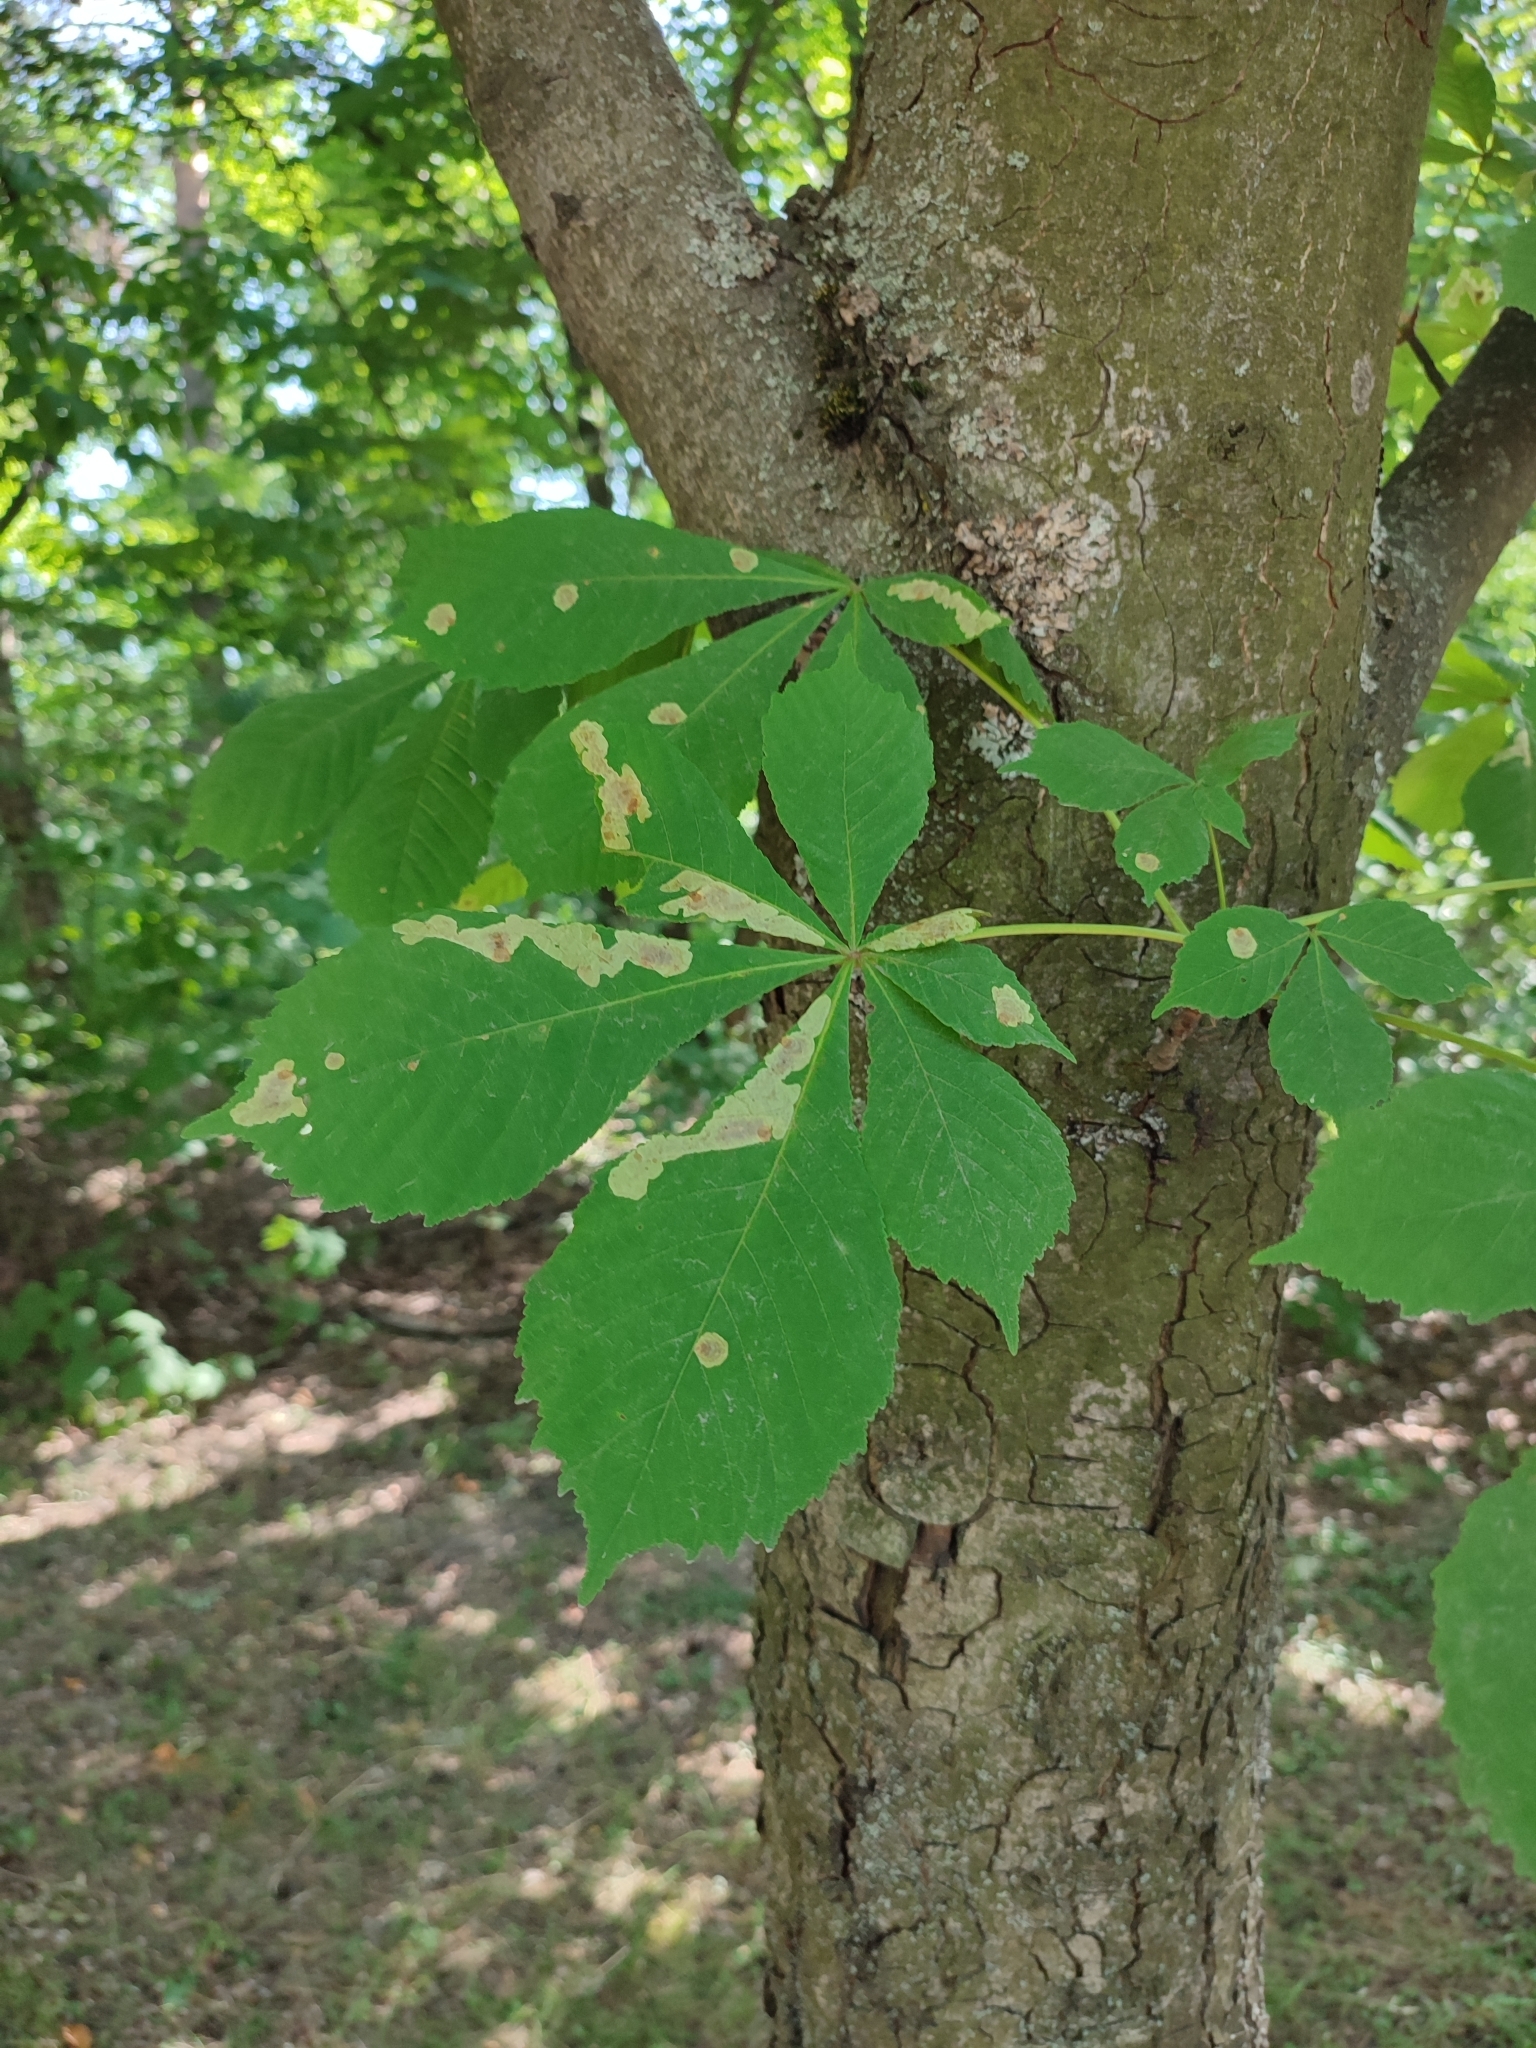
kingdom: Animalia
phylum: Arthropoda
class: Insecta
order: Lepidoptera
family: Gracillariidae
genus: Cameraria
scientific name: Cameraria ohridella
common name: Horse-chestnut leaf-miner
